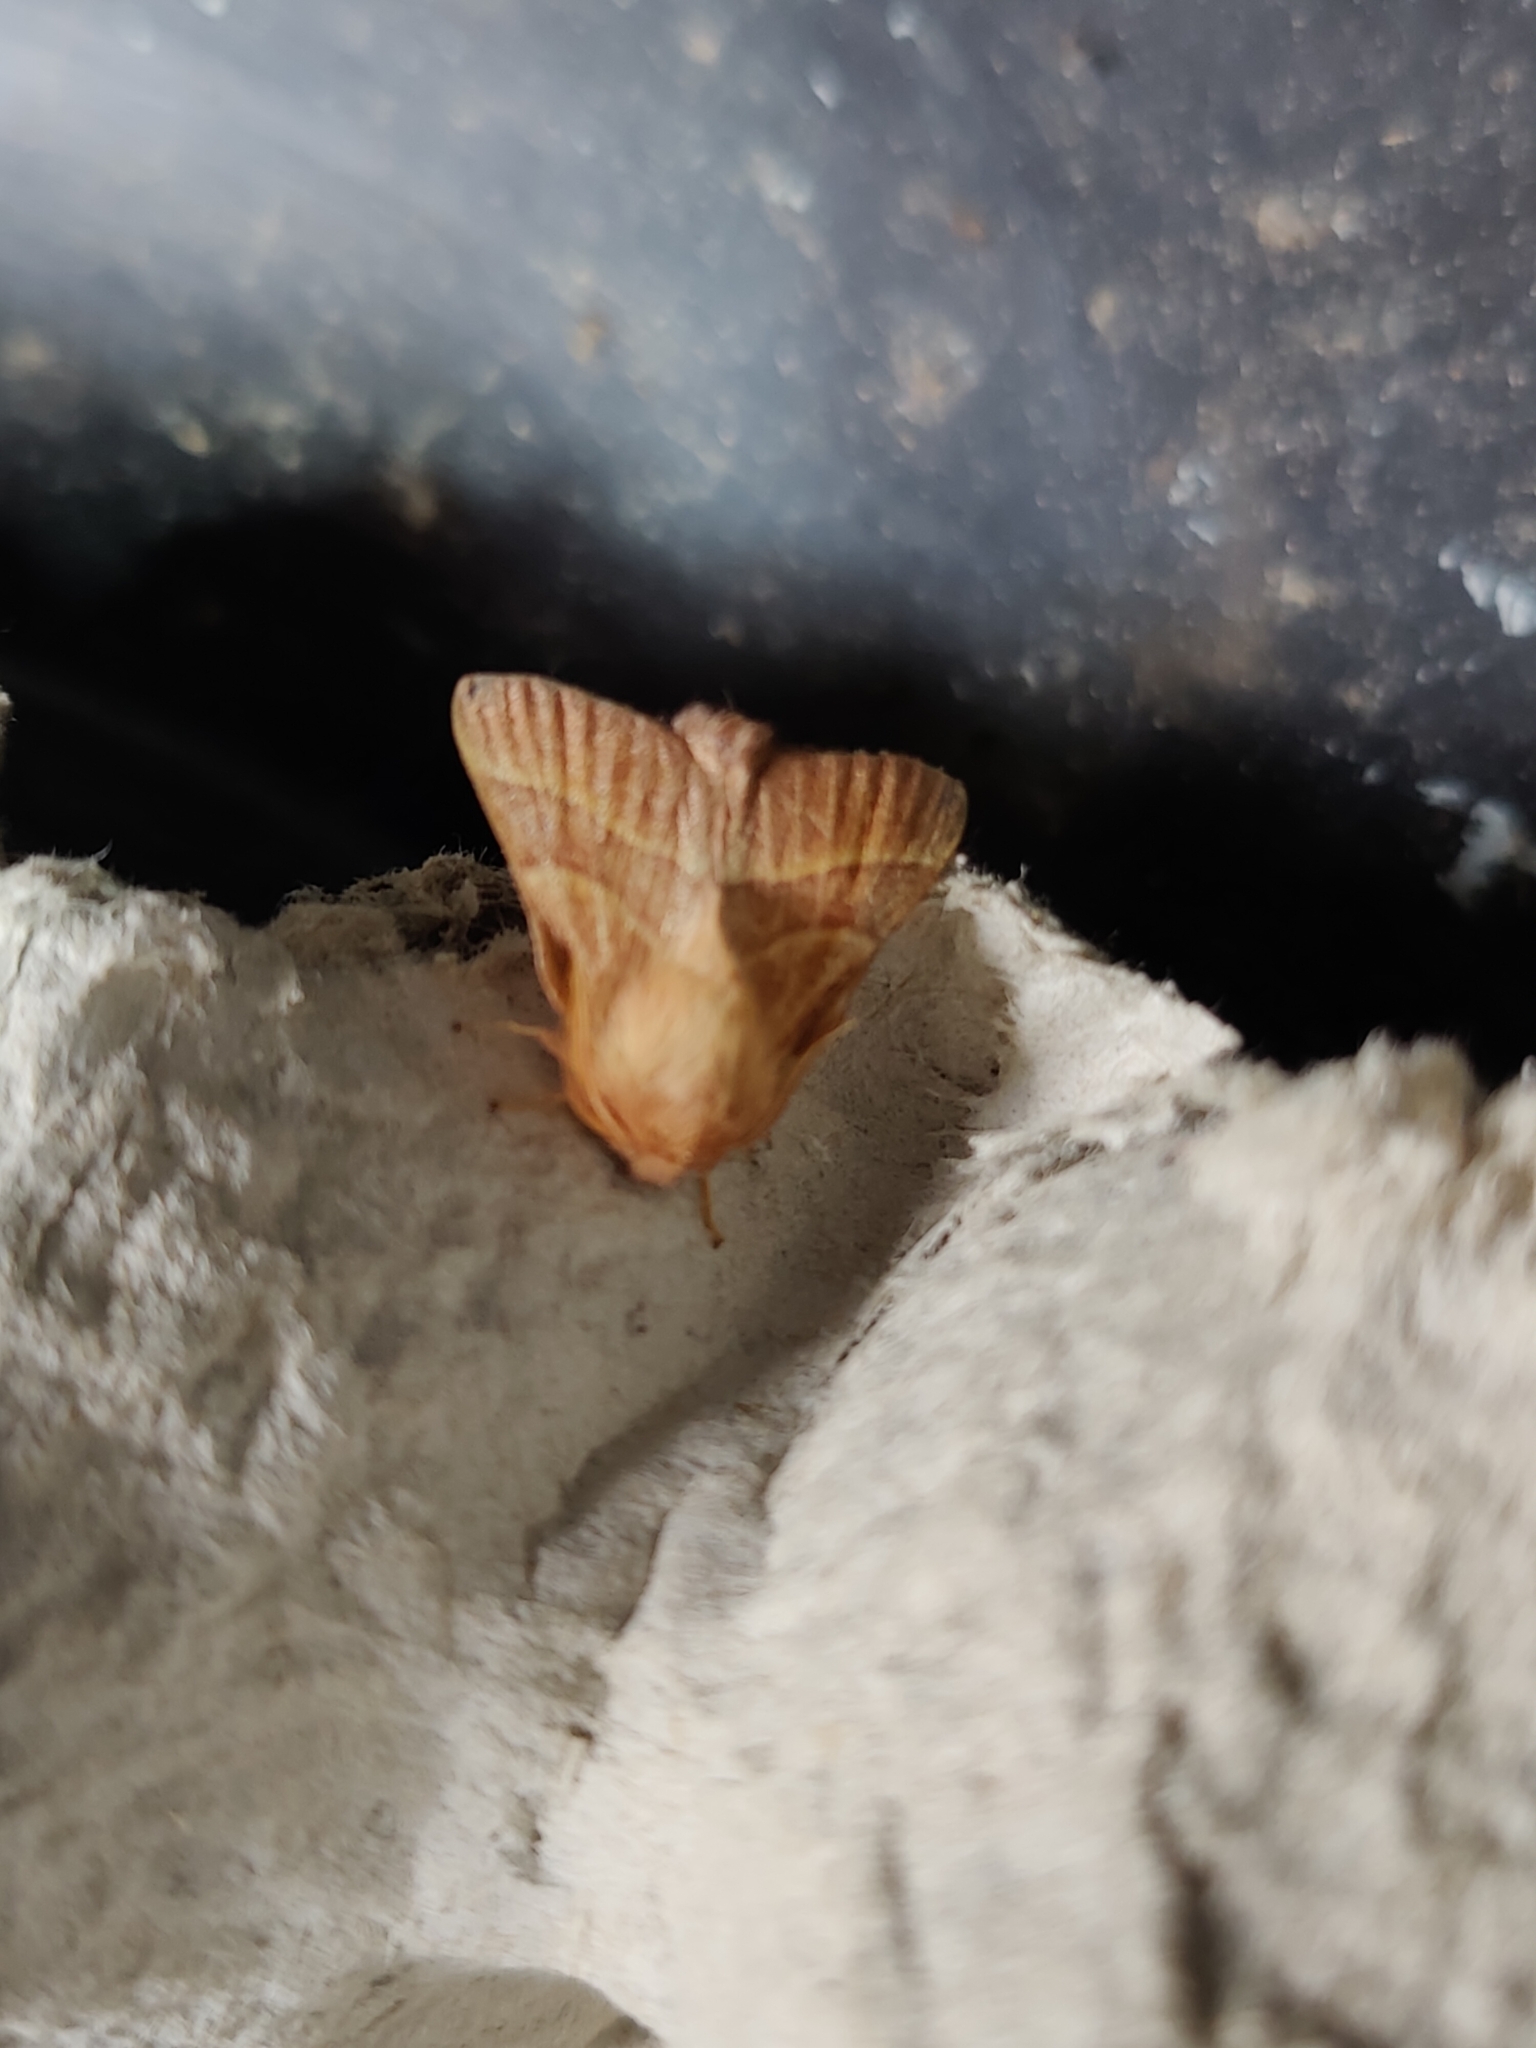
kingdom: Animalia
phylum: Arthropoda
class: Insecta
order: Lepidoptera
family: Lasiocampidae
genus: Malacosoma
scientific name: Malacosoma neustria
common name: The lackey
